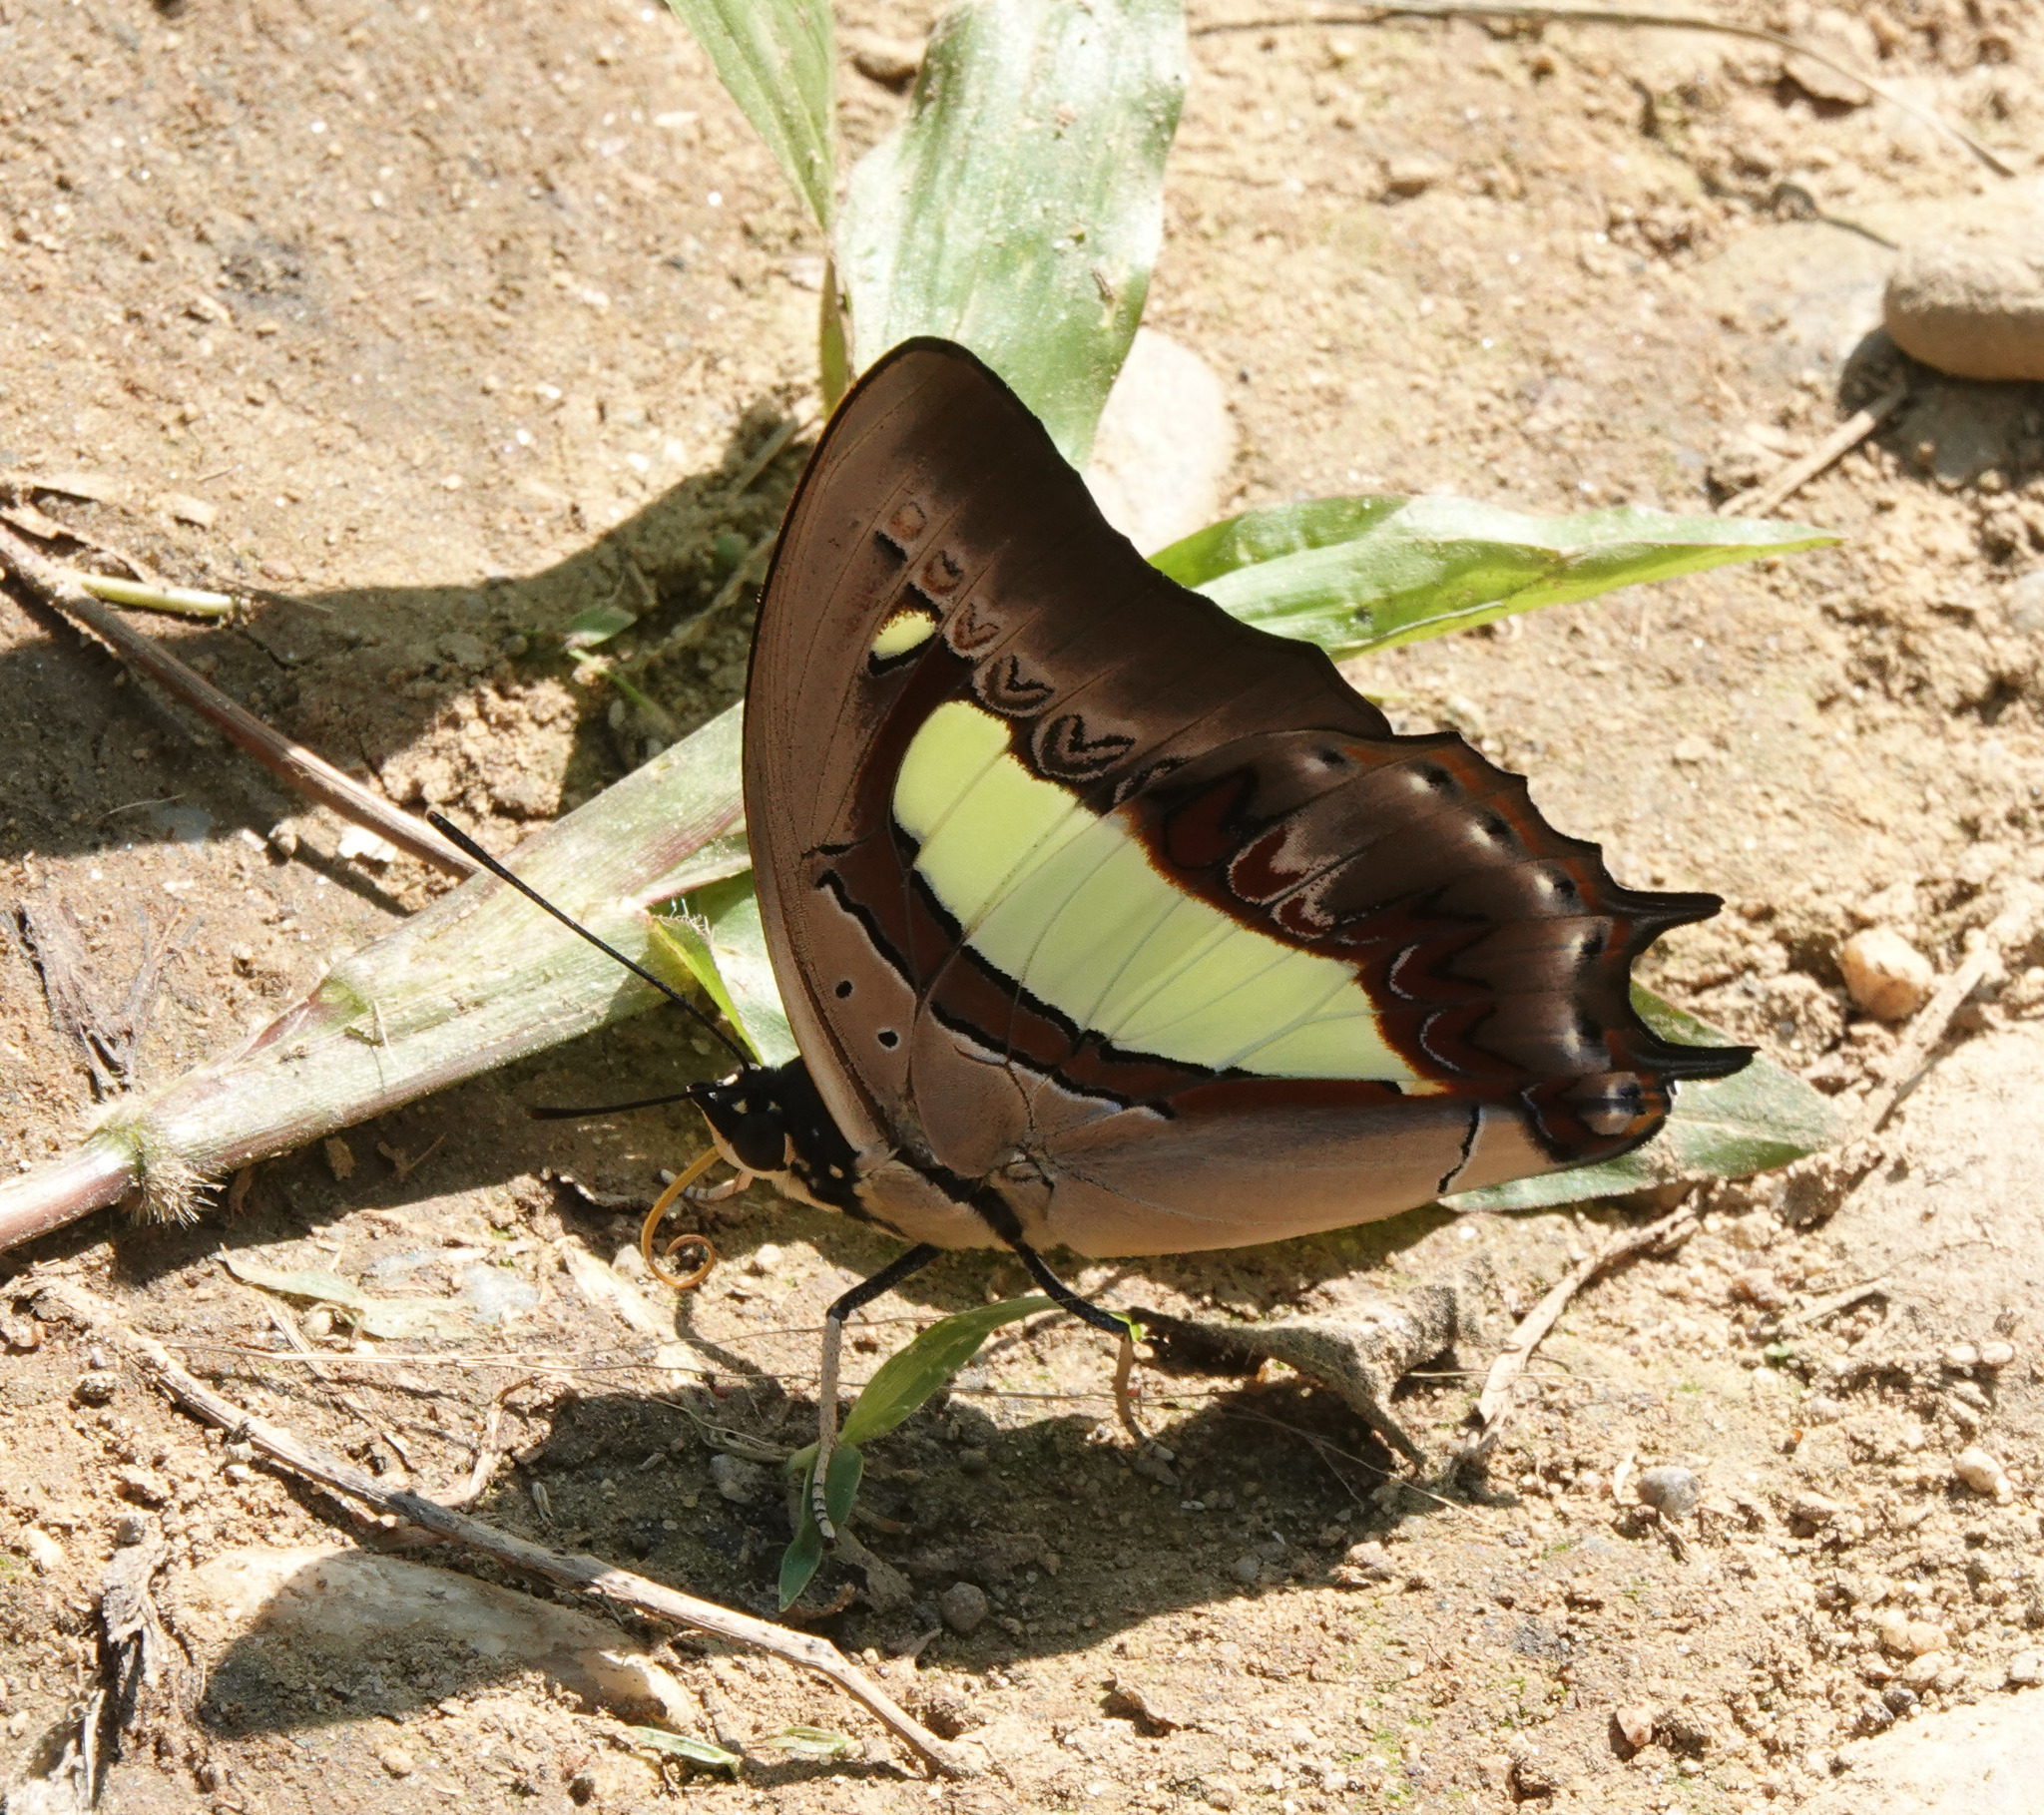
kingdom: Animalia
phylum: Arthropoda
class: Insecta
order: Lepidoptera
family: Nymphalidae
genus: Polyura
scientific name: Polyura
